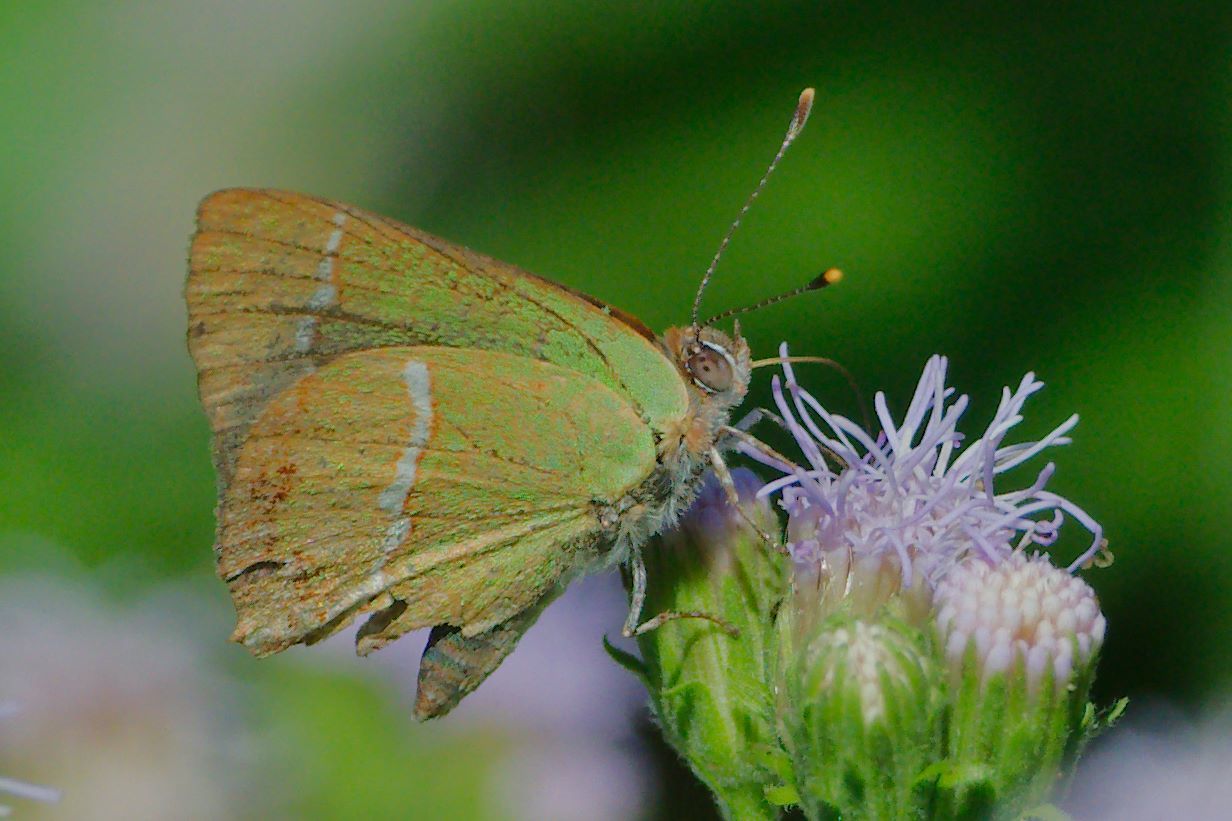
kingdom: Animalia
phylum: Arthropoda
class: Insecta
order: Lepidoptera
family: Lycaenidae
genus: Chlorostrymon
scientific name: Chlorostrymon simaethis
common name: Silver-banded hairstreak
